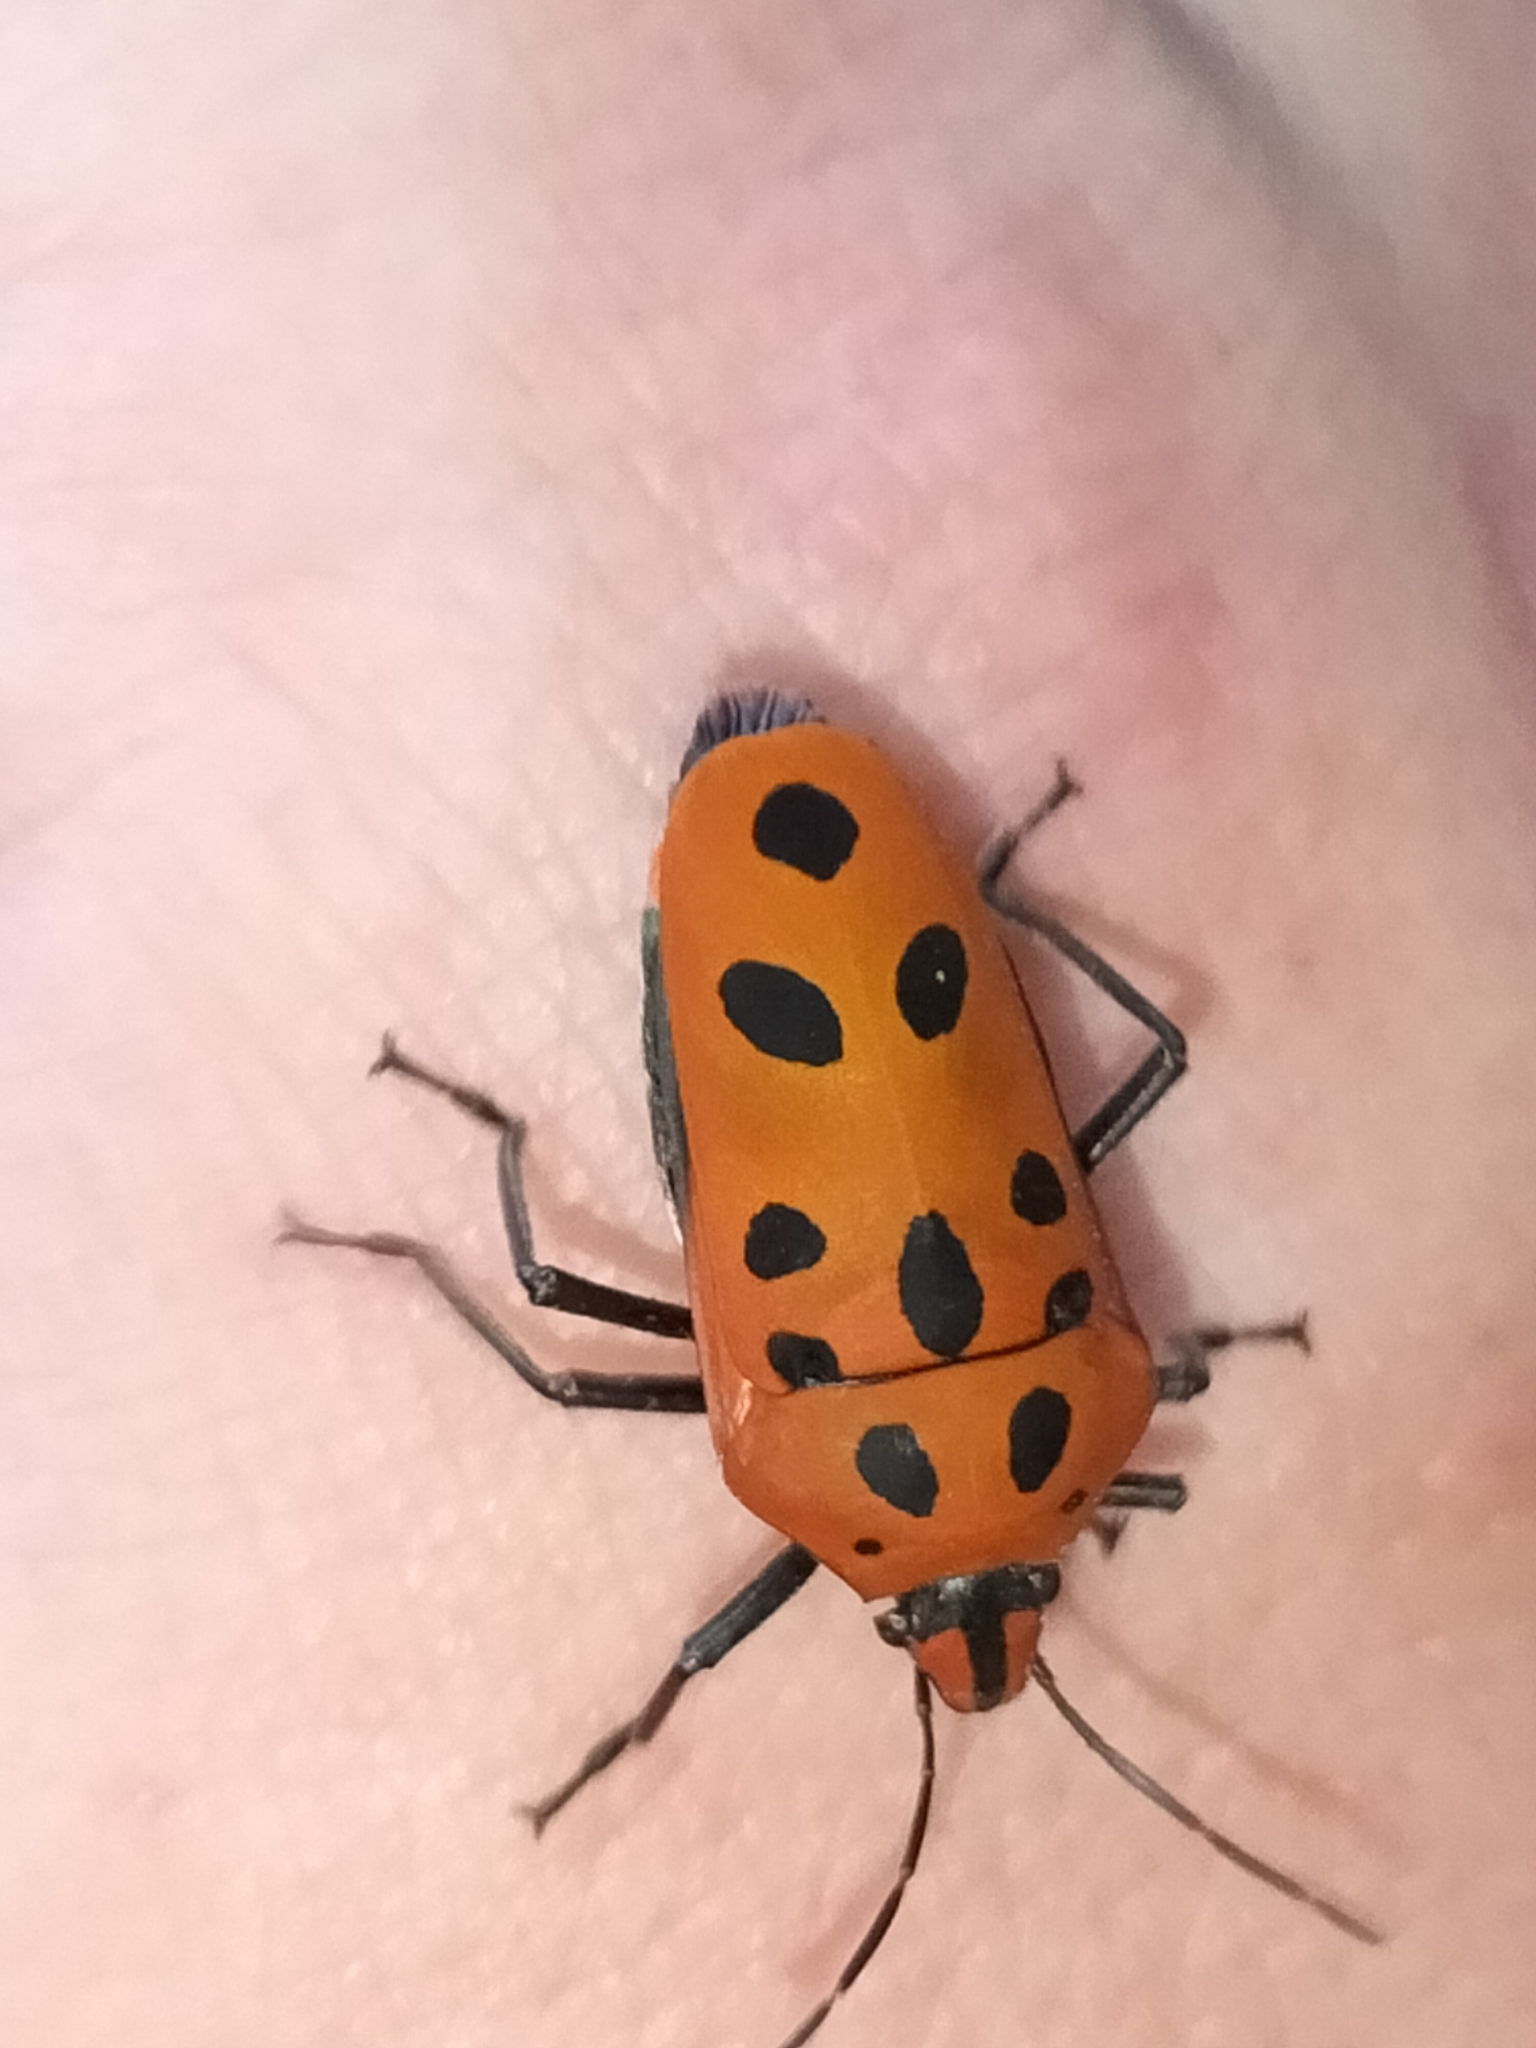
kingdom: Animalia
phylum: Arthropoda
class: Insecta
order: Hemiptera
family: Scutelleridae
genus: Cantao
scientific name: Cantao
